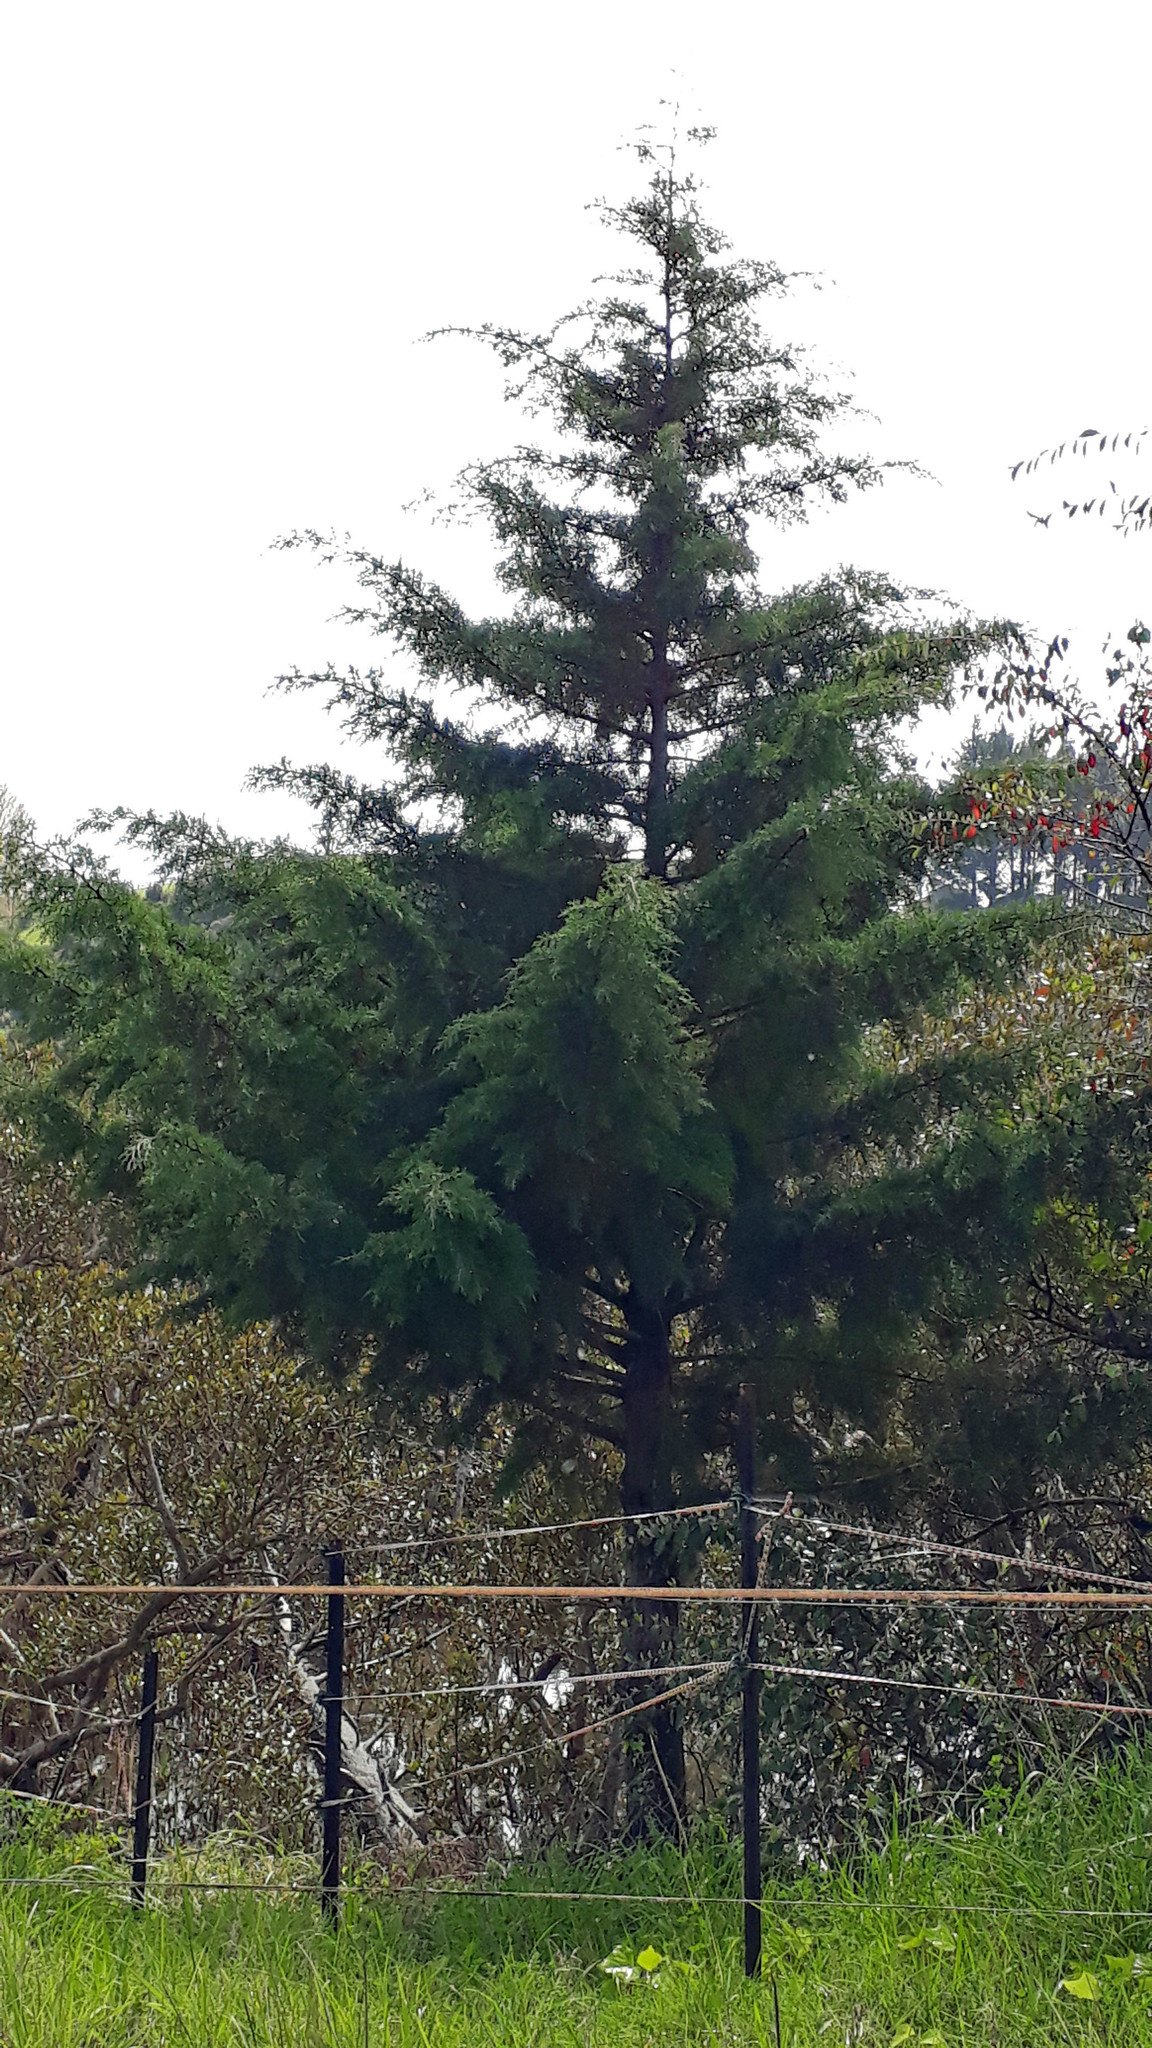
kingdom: Plantae
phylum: Tracheophyta
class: Pinopsida
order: Pinales
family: Cupressaceae
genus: Cupressus
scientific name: Cupressus arizonica
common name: Arizona cypress
